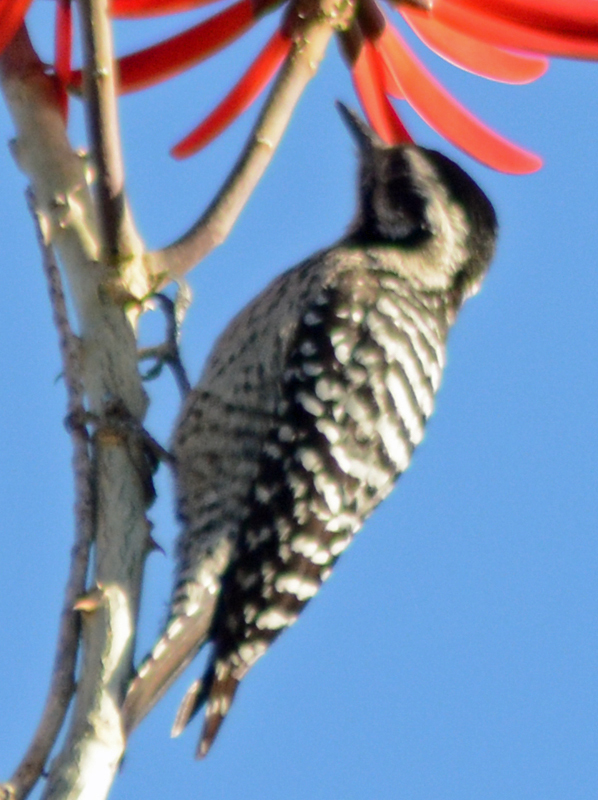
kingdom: Animalia
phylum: Chordata
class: Aves
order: Piciformes
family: Picidae
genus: Dryobates
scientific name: Dryobates scalaris
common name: Ladder-backed woodpecker
